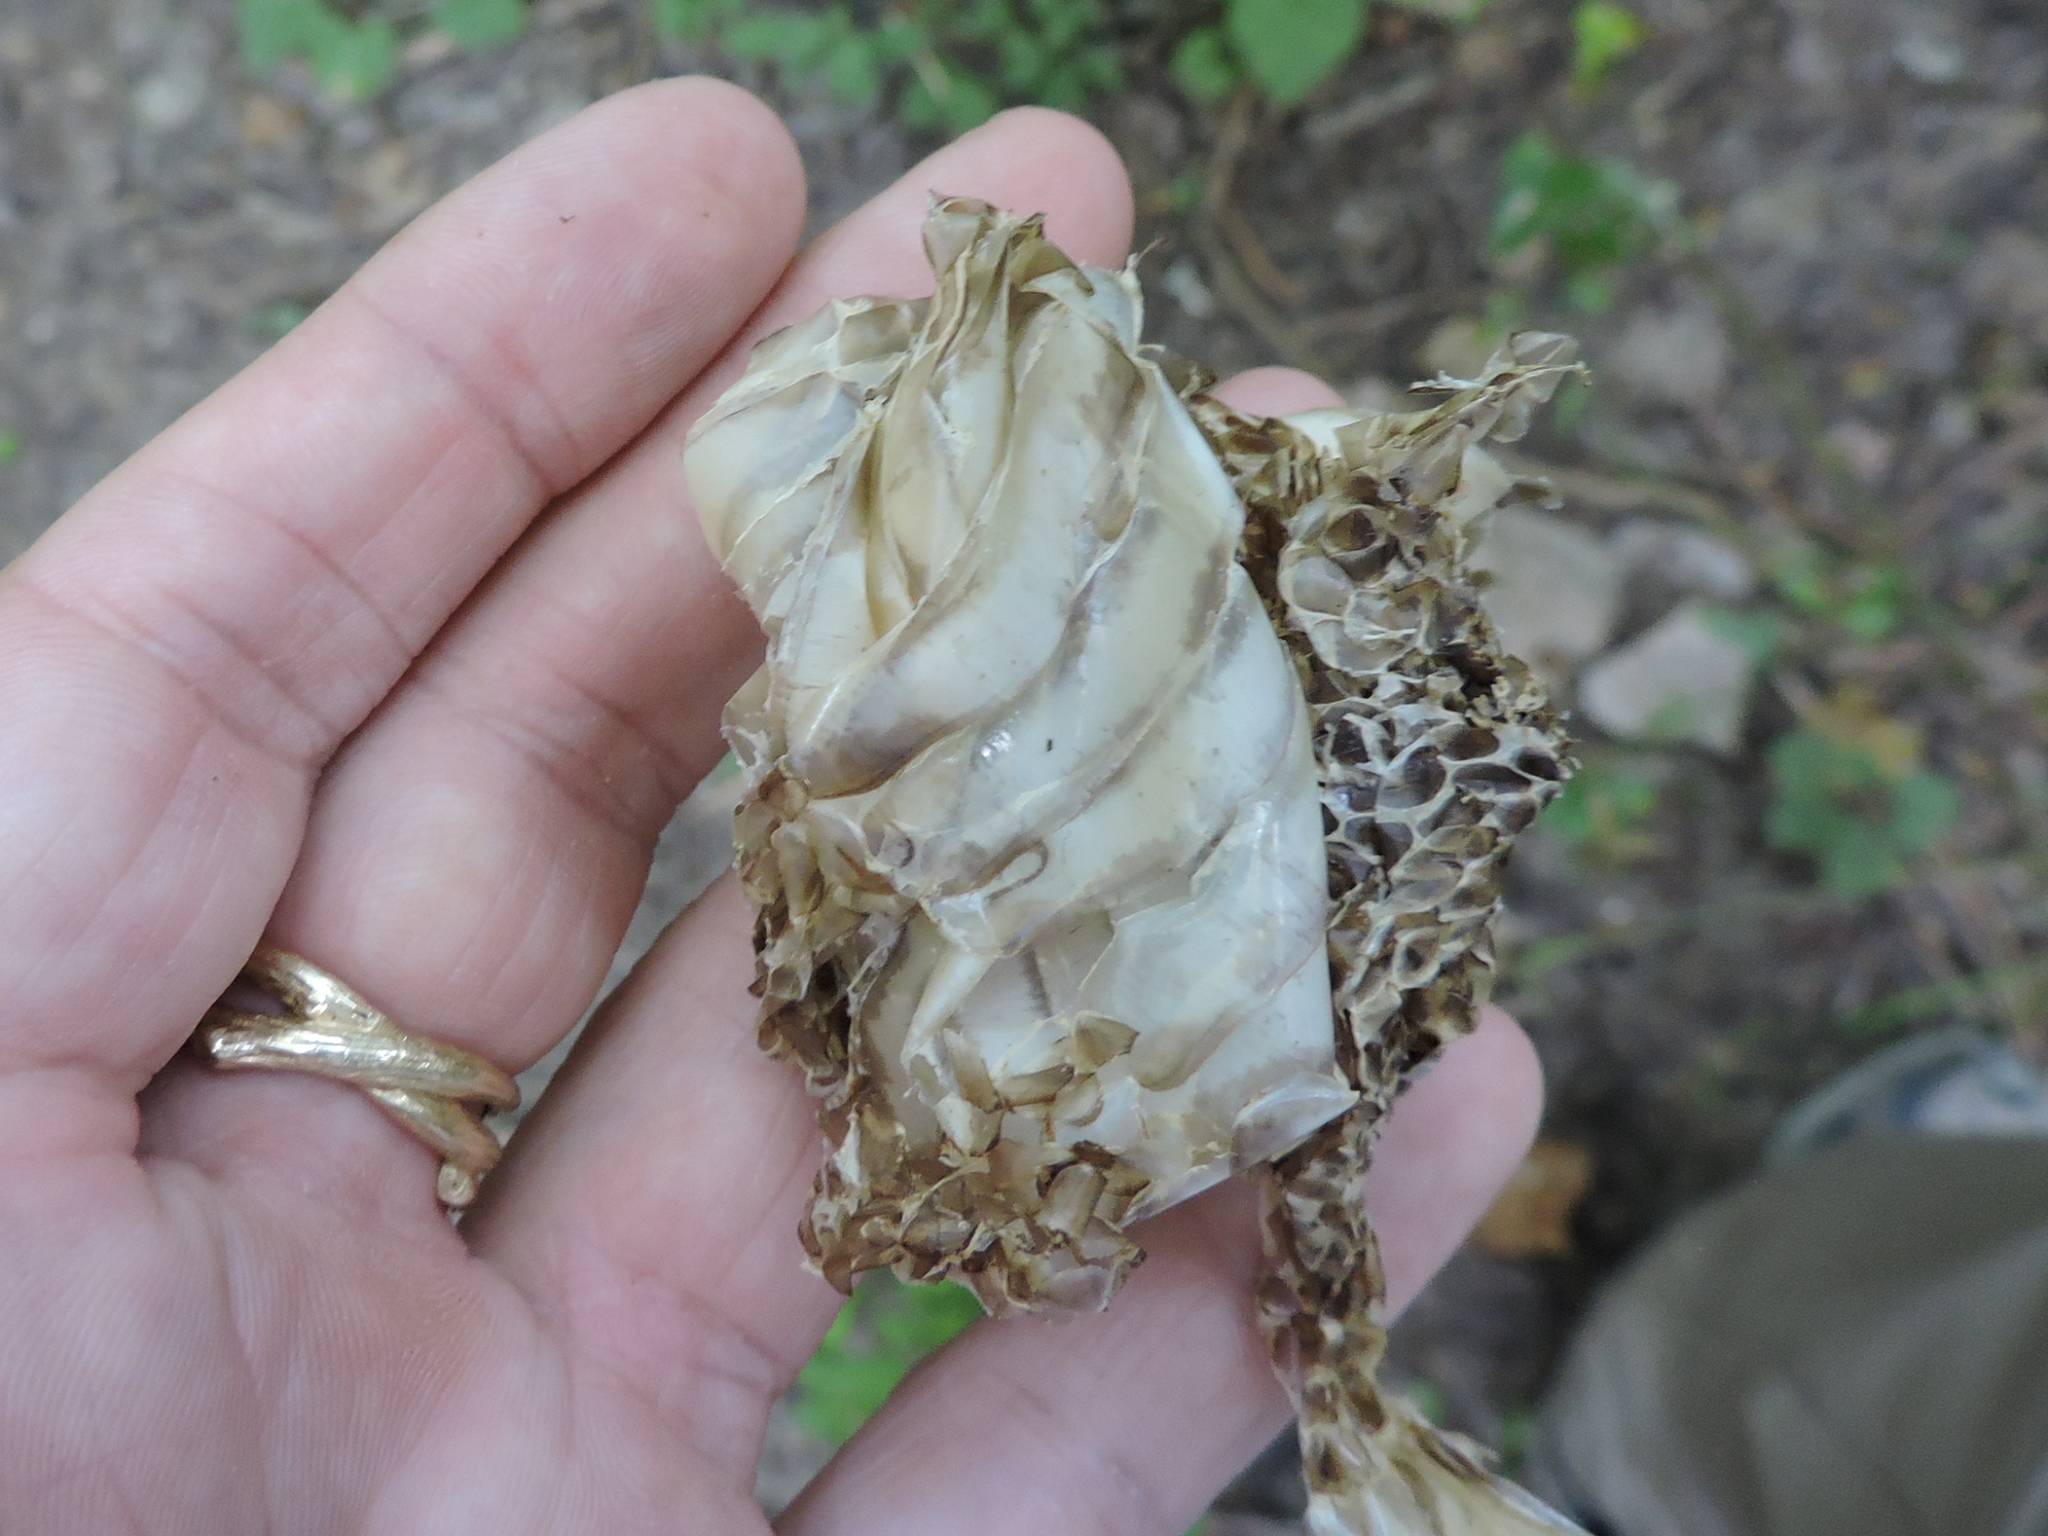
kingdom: Animalia
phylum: Chordata
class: Squamata
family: Colubridae
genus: Pantherophis
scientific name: Pantherophis obsoletus
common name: Black rat snake
